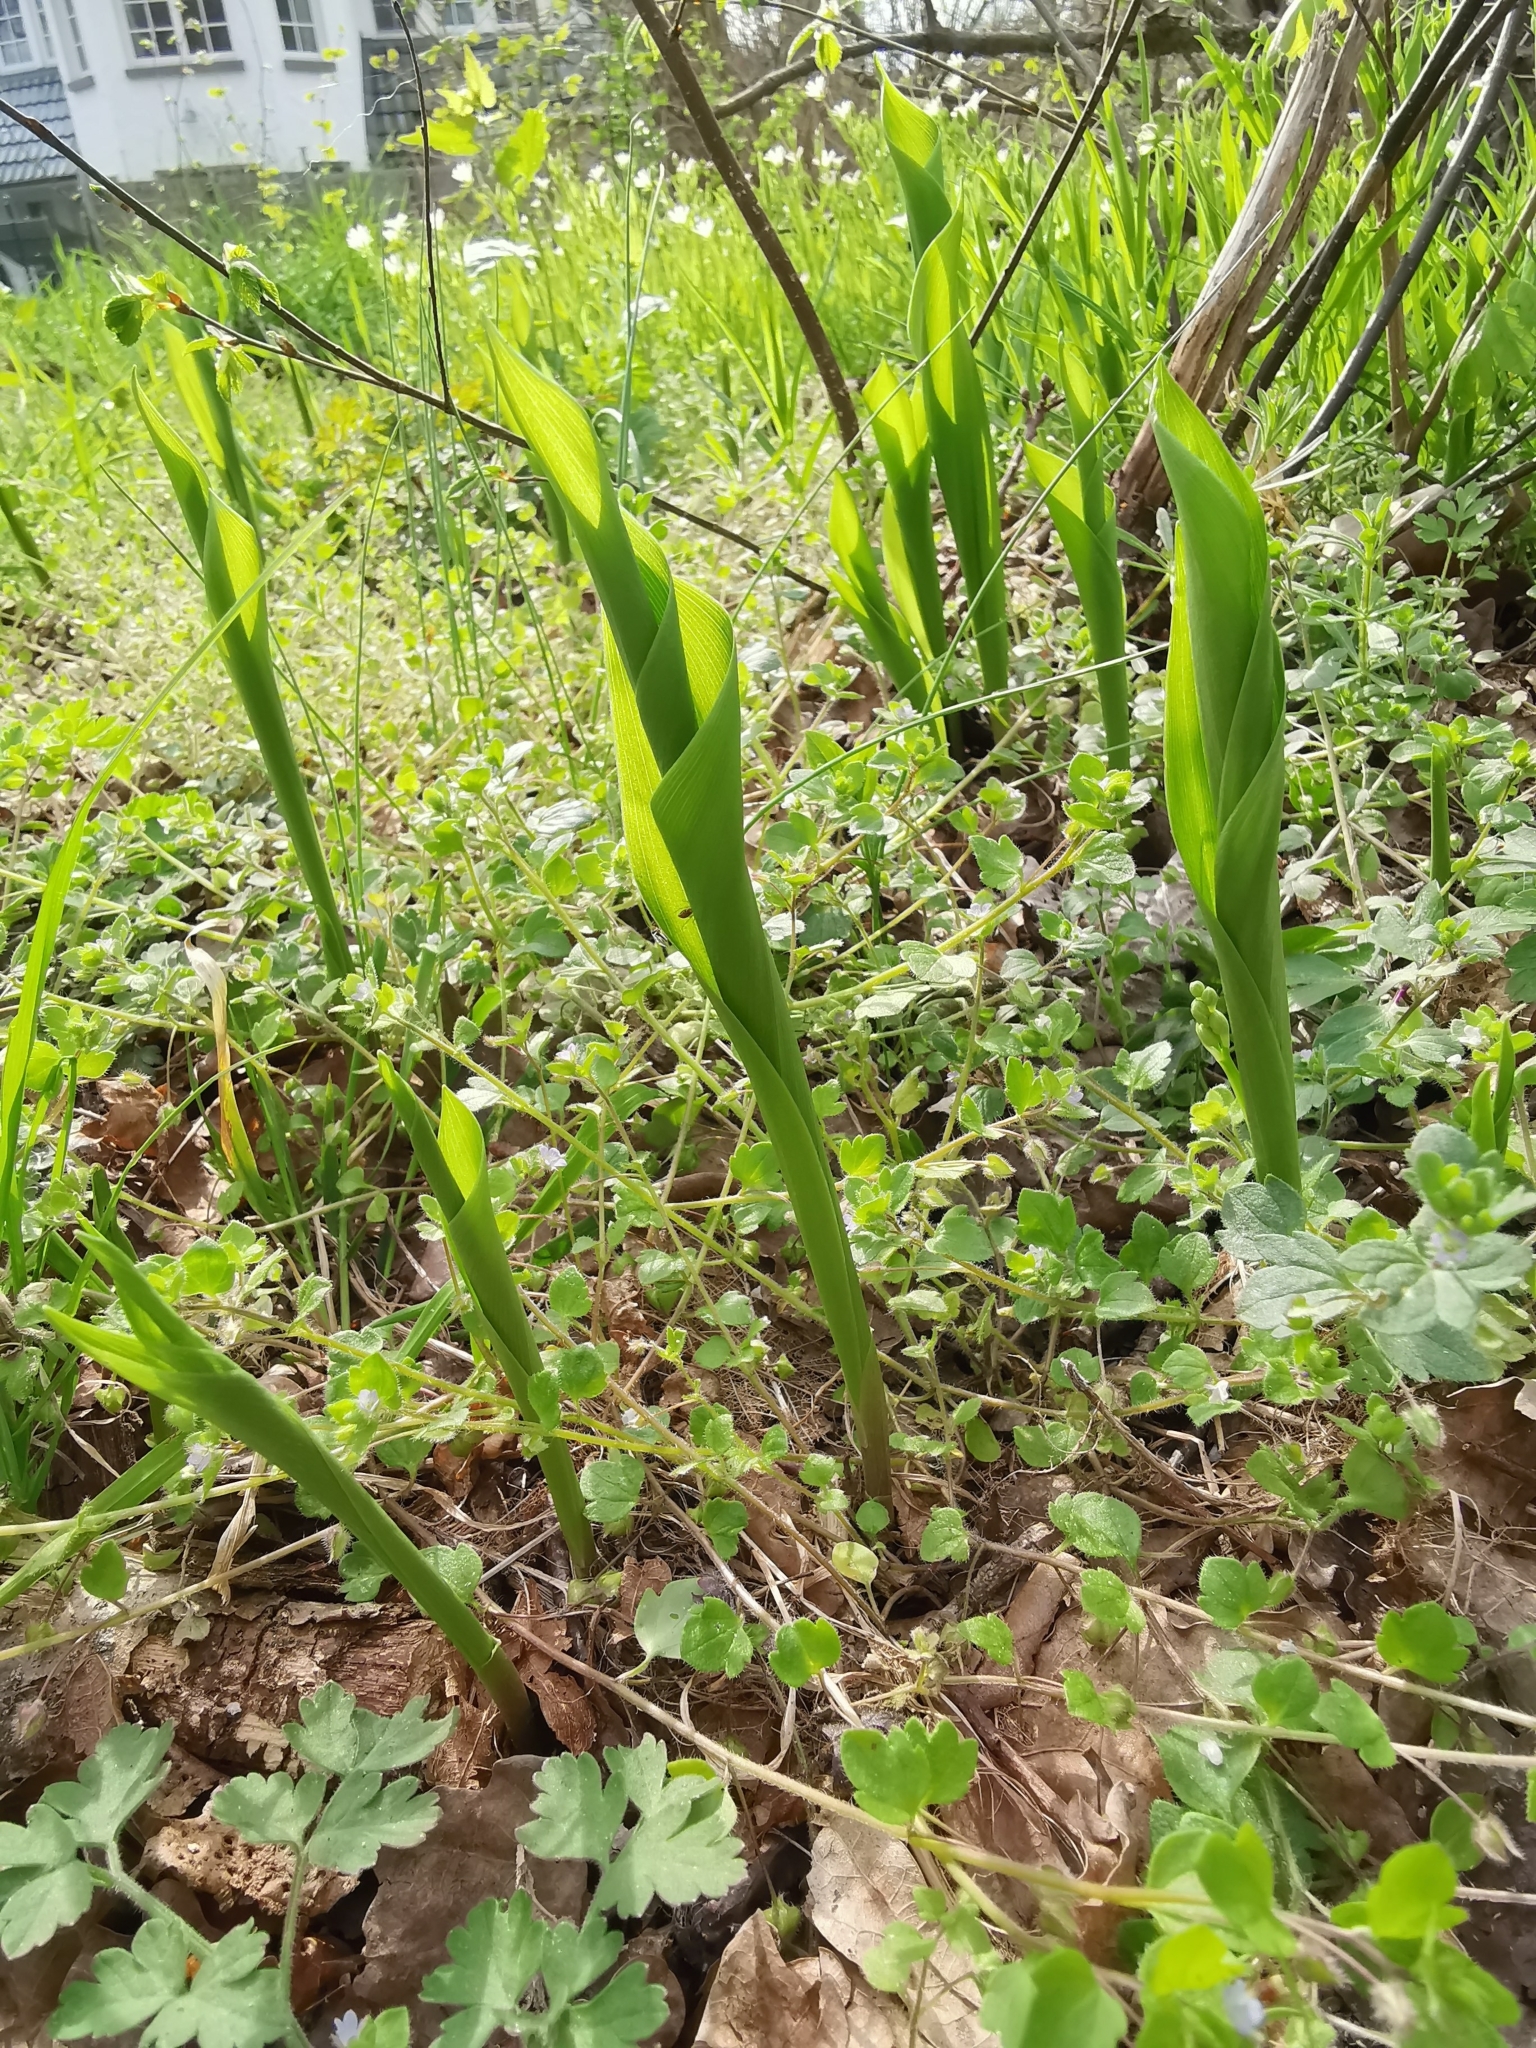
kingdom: Plantae
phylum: Tracheophyta
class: Liliopsida
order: Asparagales
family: Asparagaceae
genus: Convallaria
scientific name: Convallaria majalis
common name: Lily-of-the-valley
